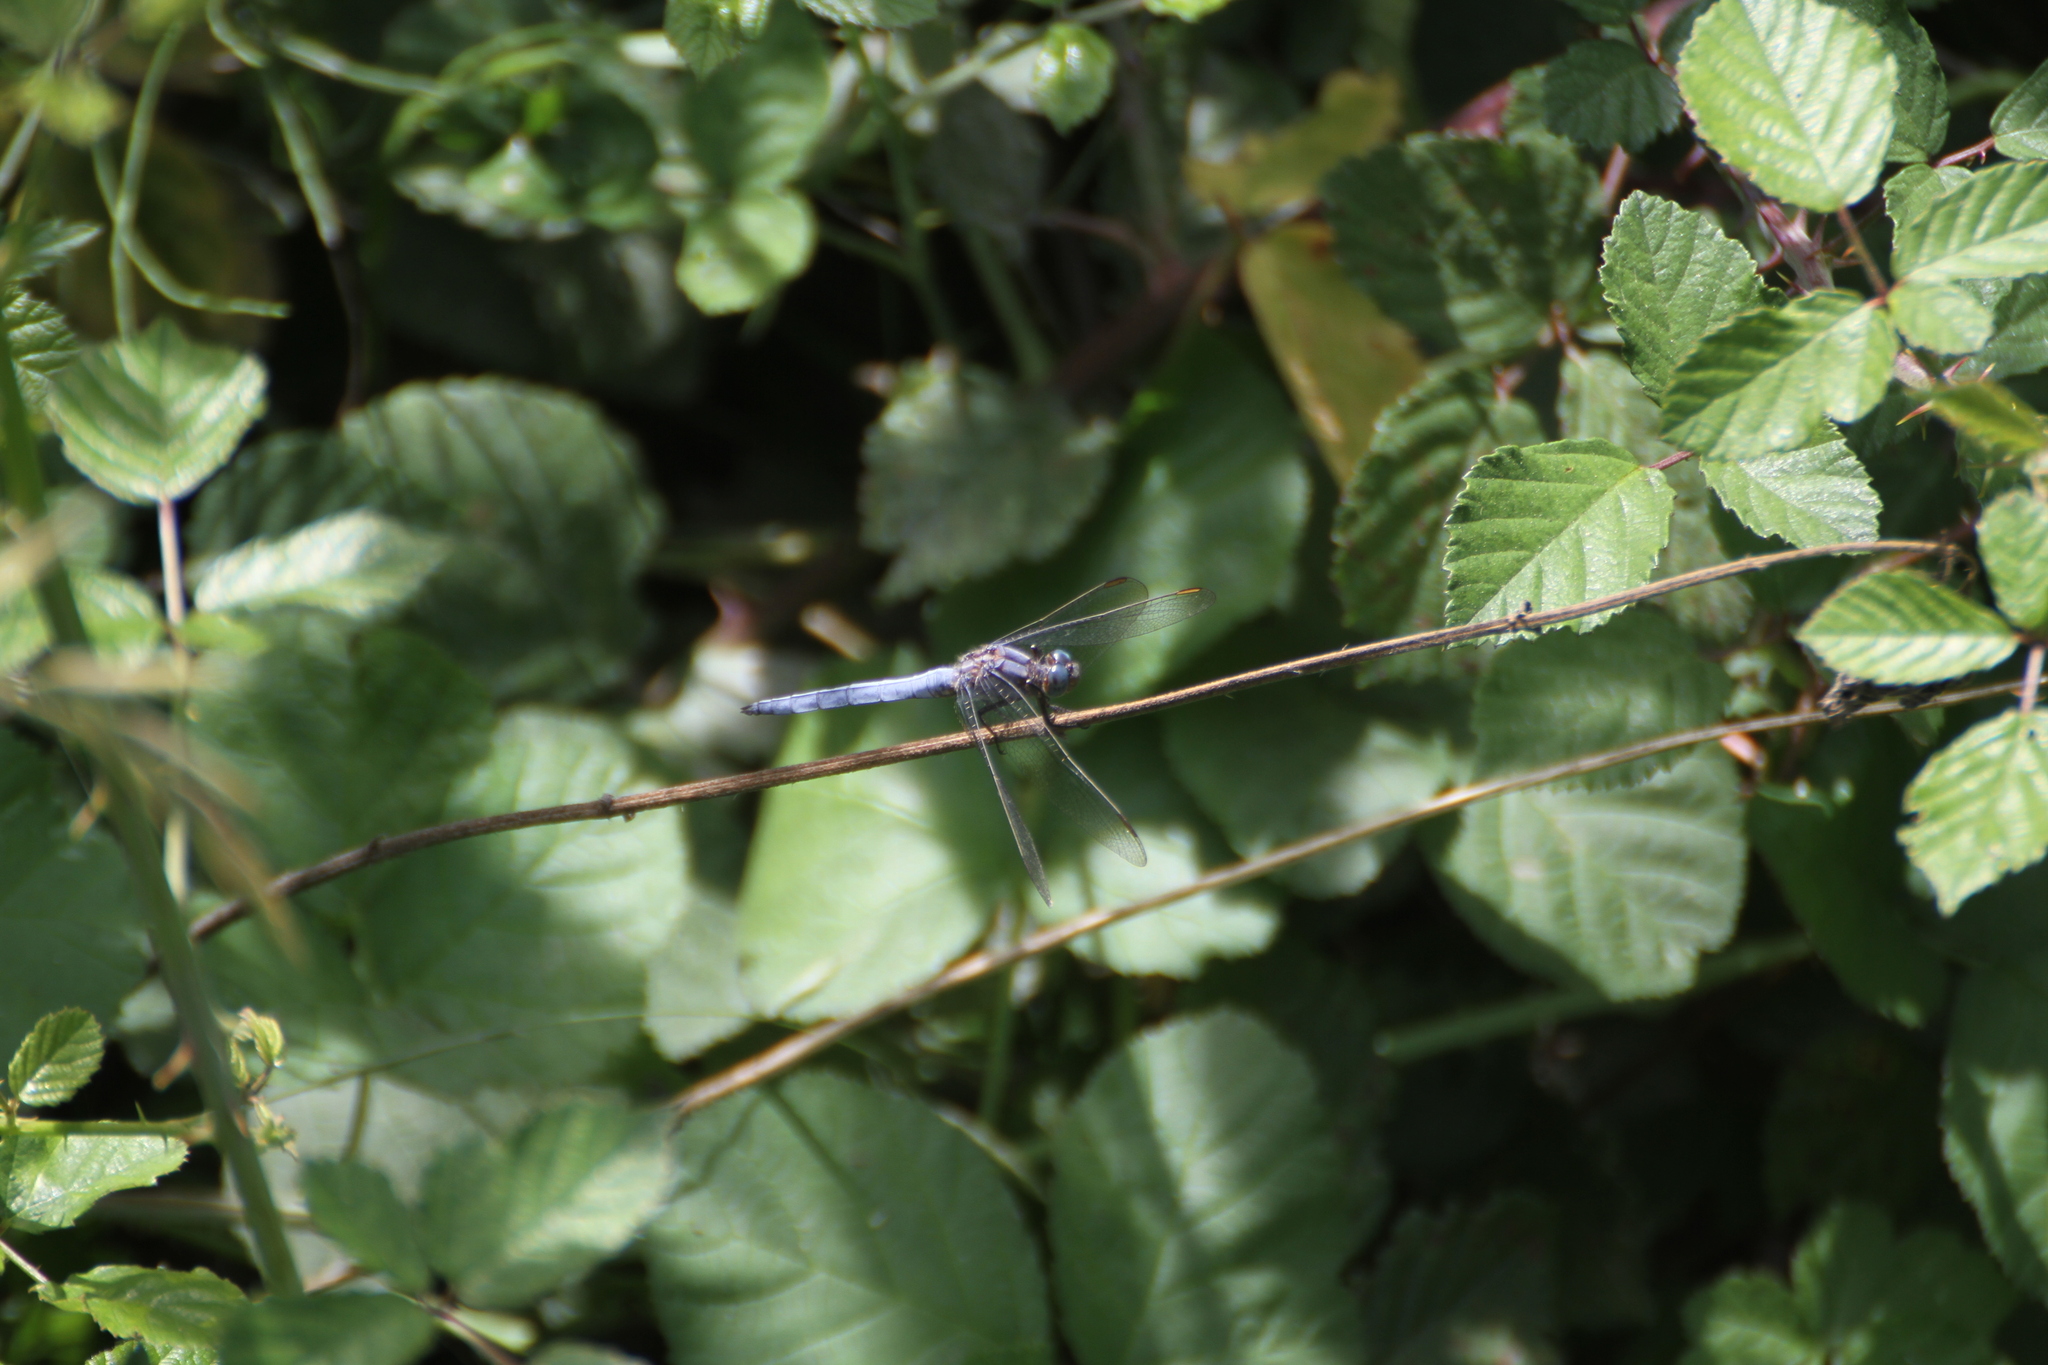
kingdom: Animalia
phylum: Arthropoda
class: Insecta
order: Odonata
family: Libellulidae
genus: Orthetrum
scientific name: Orthetrum coerulescens
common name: Keeled skimmer
